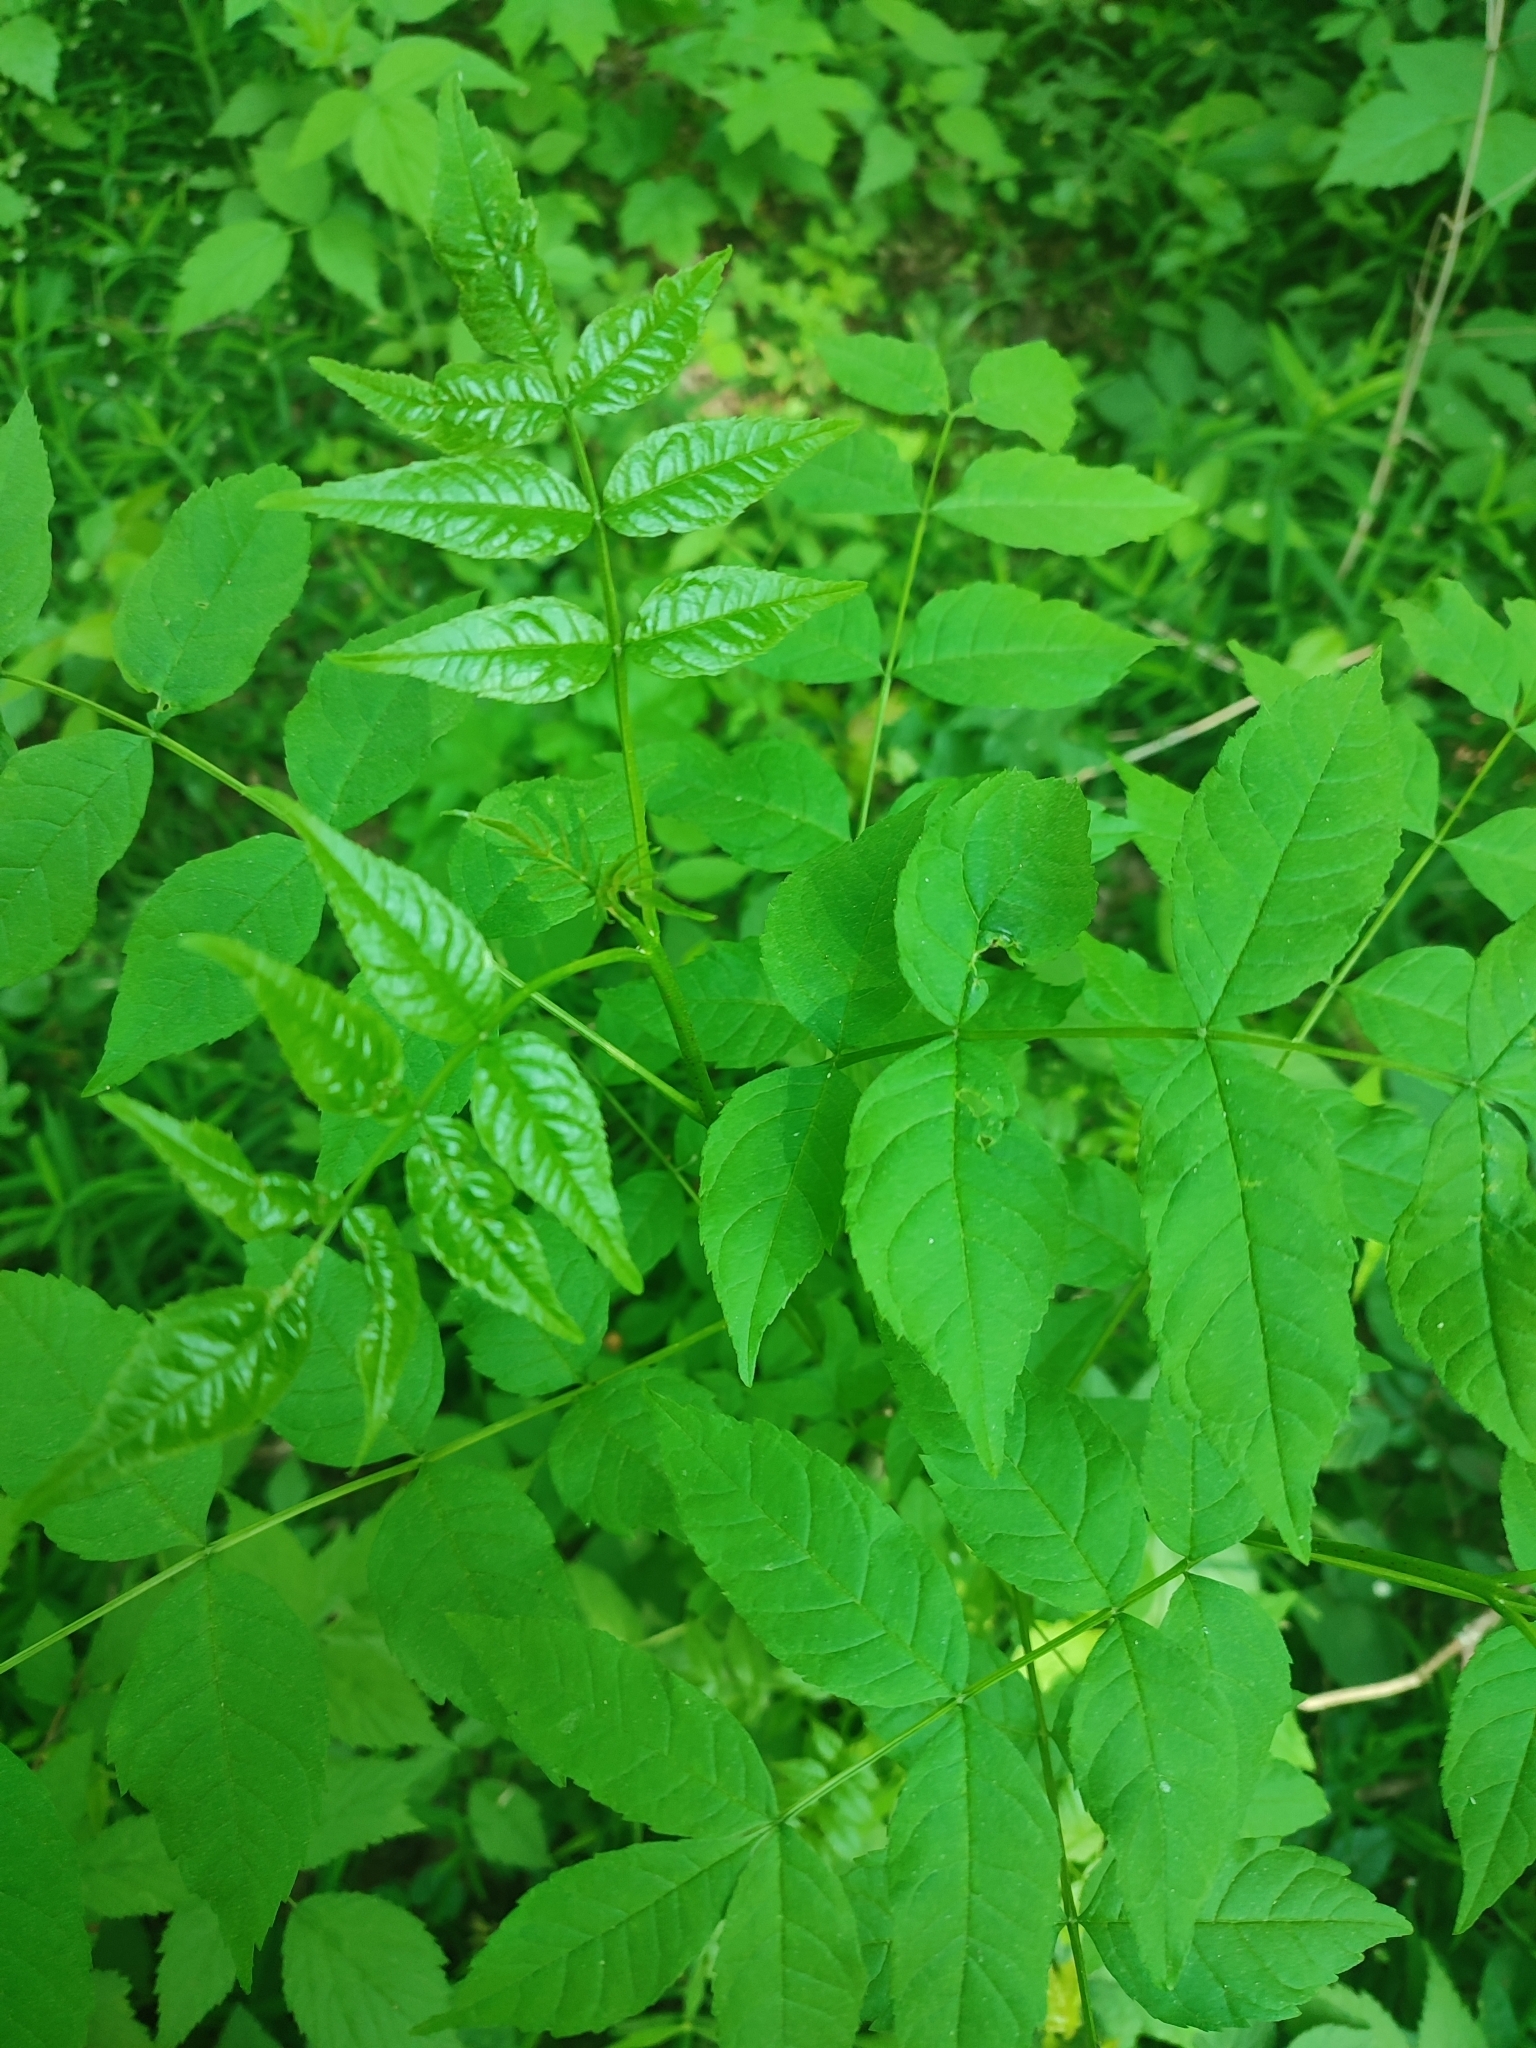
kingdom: Plantae
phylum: Tracheophyta
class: Magnoliopsida
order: Lamiales
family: Oleaceae
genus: Fraxinus
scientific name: Fraxinus excelsior
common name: European ash
